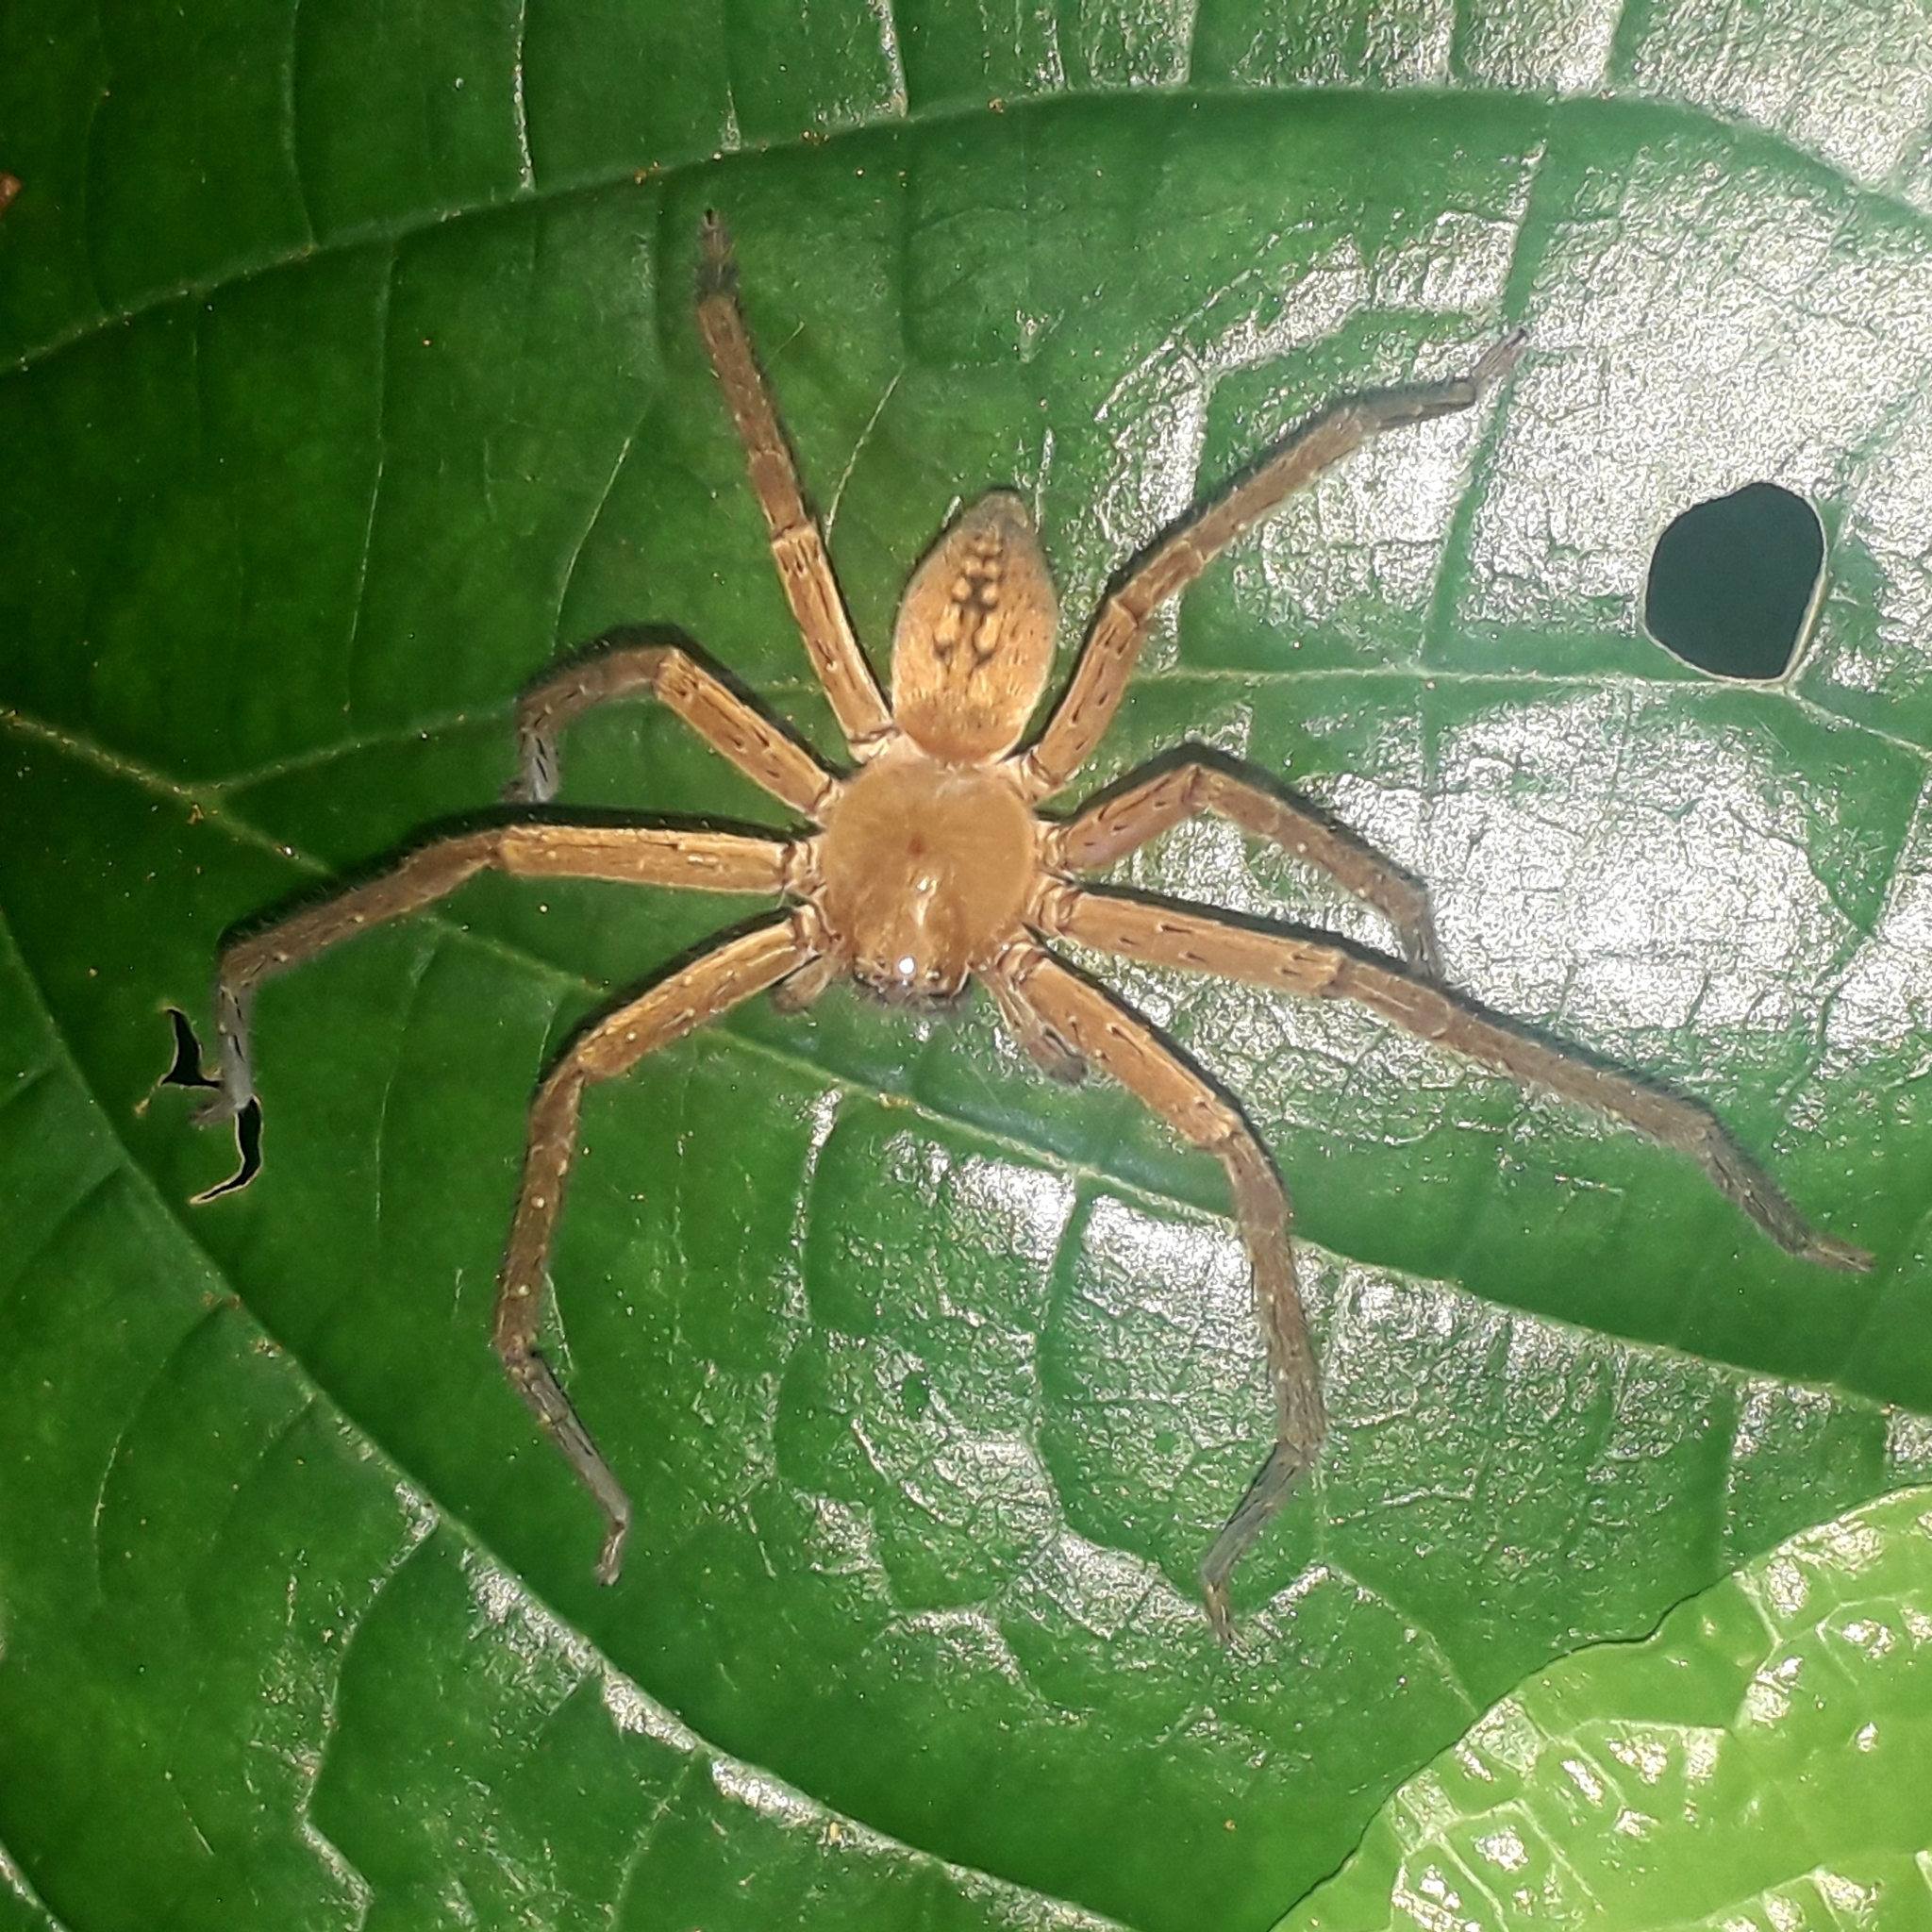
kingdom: Animalia
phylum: Arthropoda
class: Arachnida
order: Araneae
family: Sparassidae
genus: Meri
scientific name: Meri martinique
